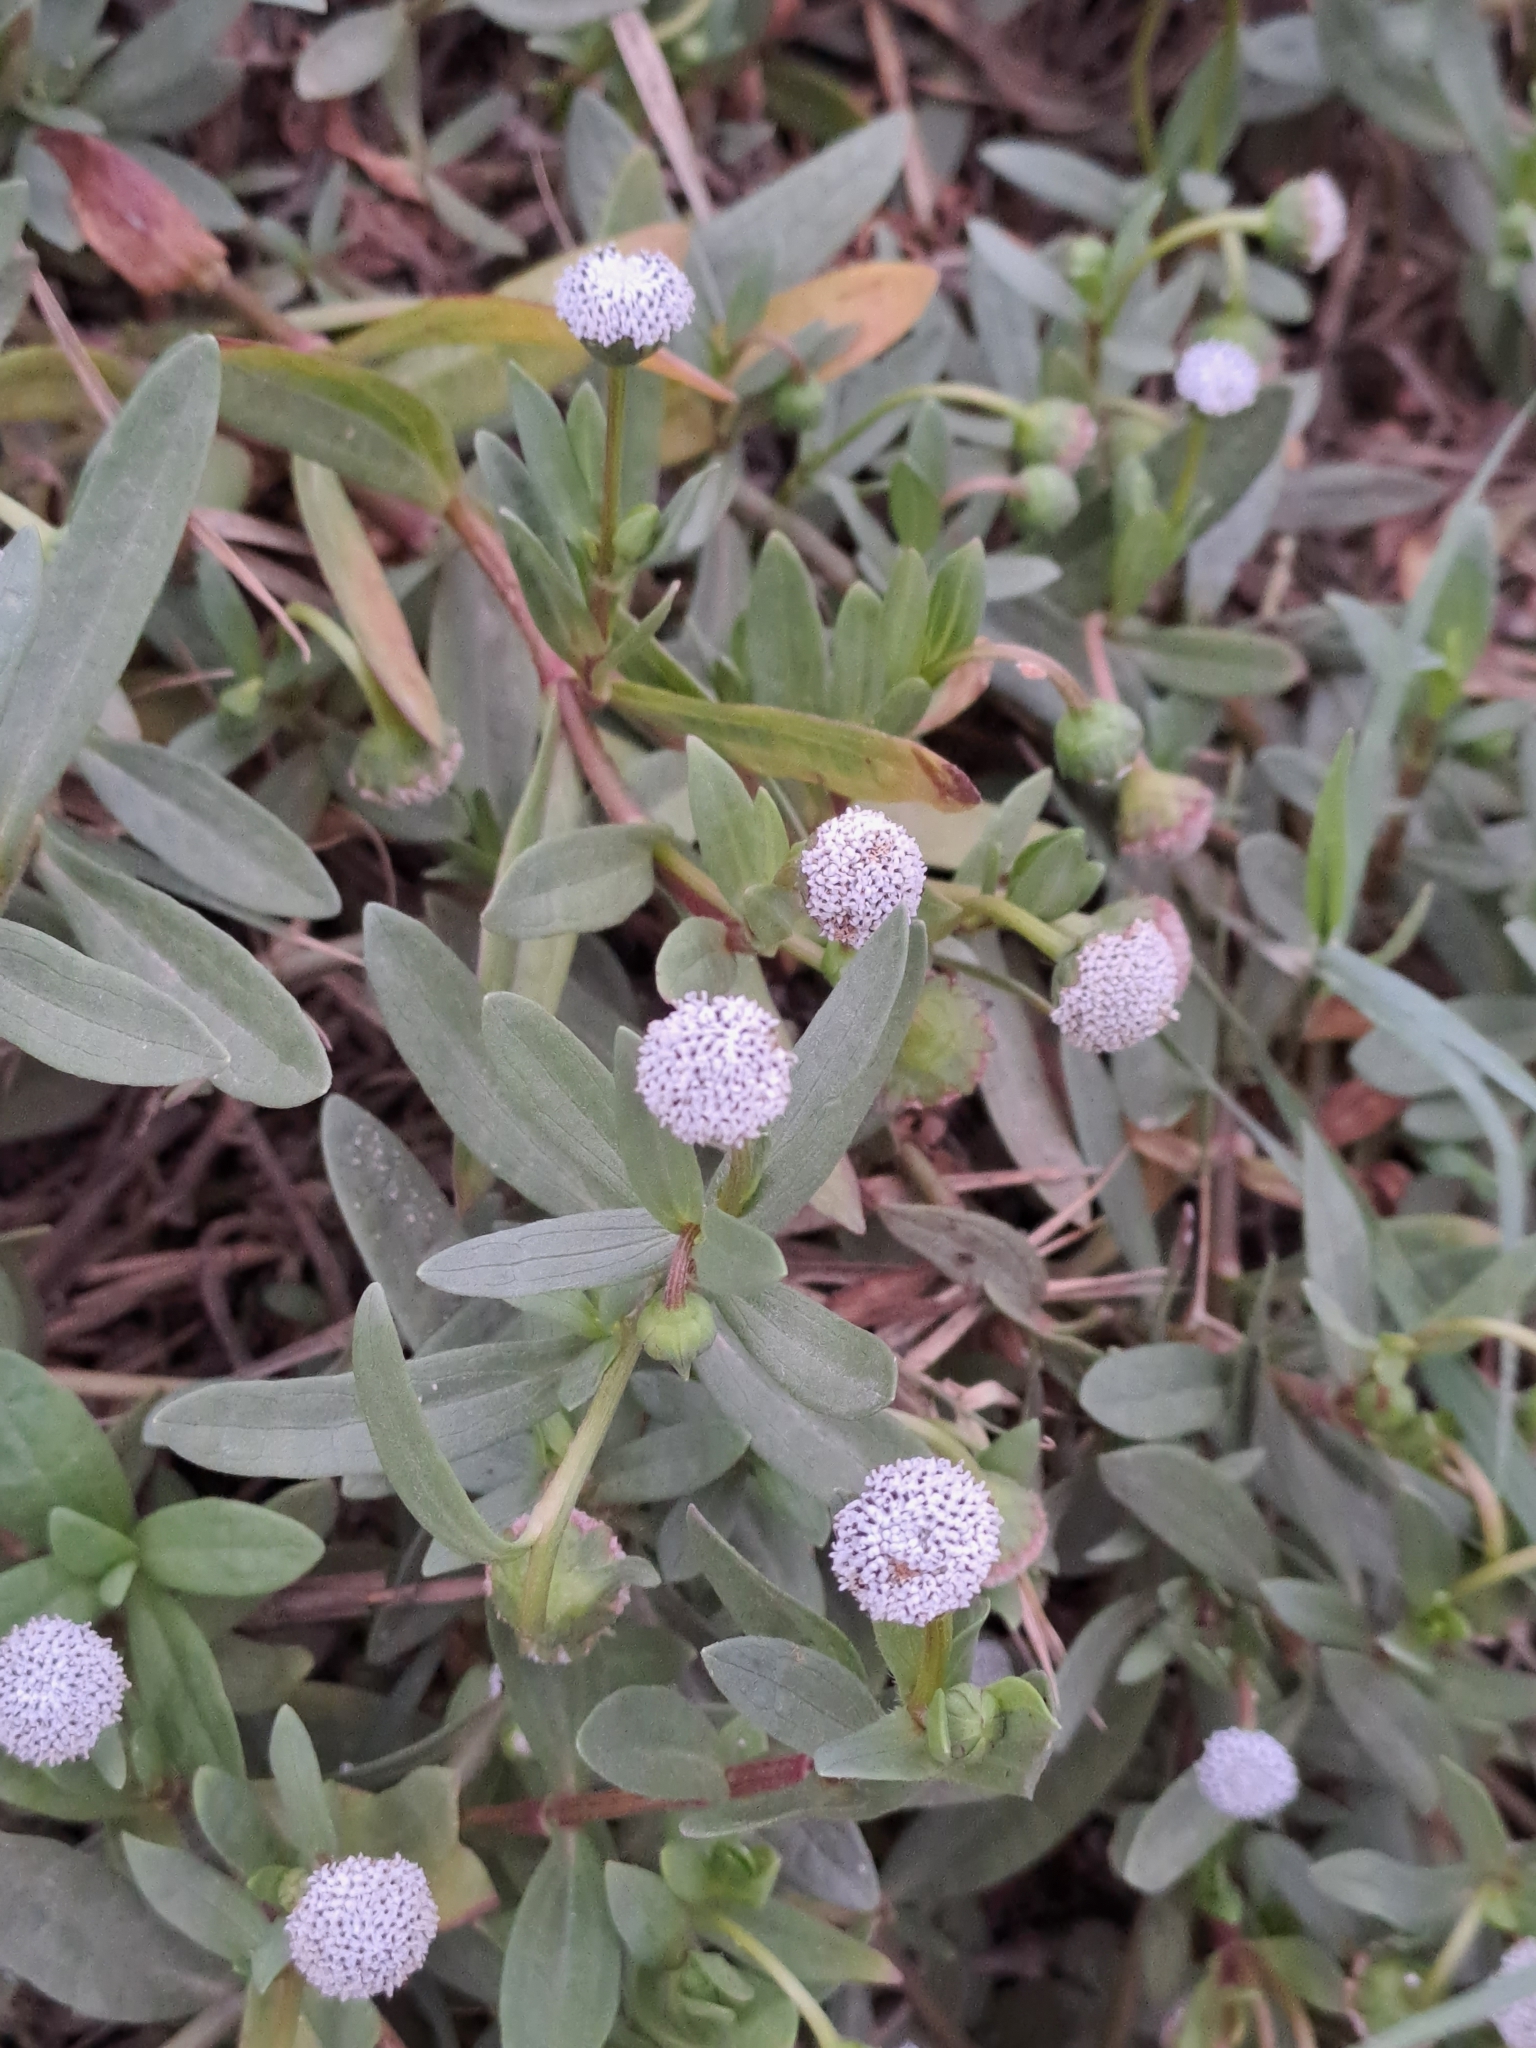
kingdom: Plantae
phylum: Tracheophyta
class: Magnoliopsida
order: Asterales
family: Asteraceae
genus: Spilanthes
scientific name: Spilanthes leiocarpa
